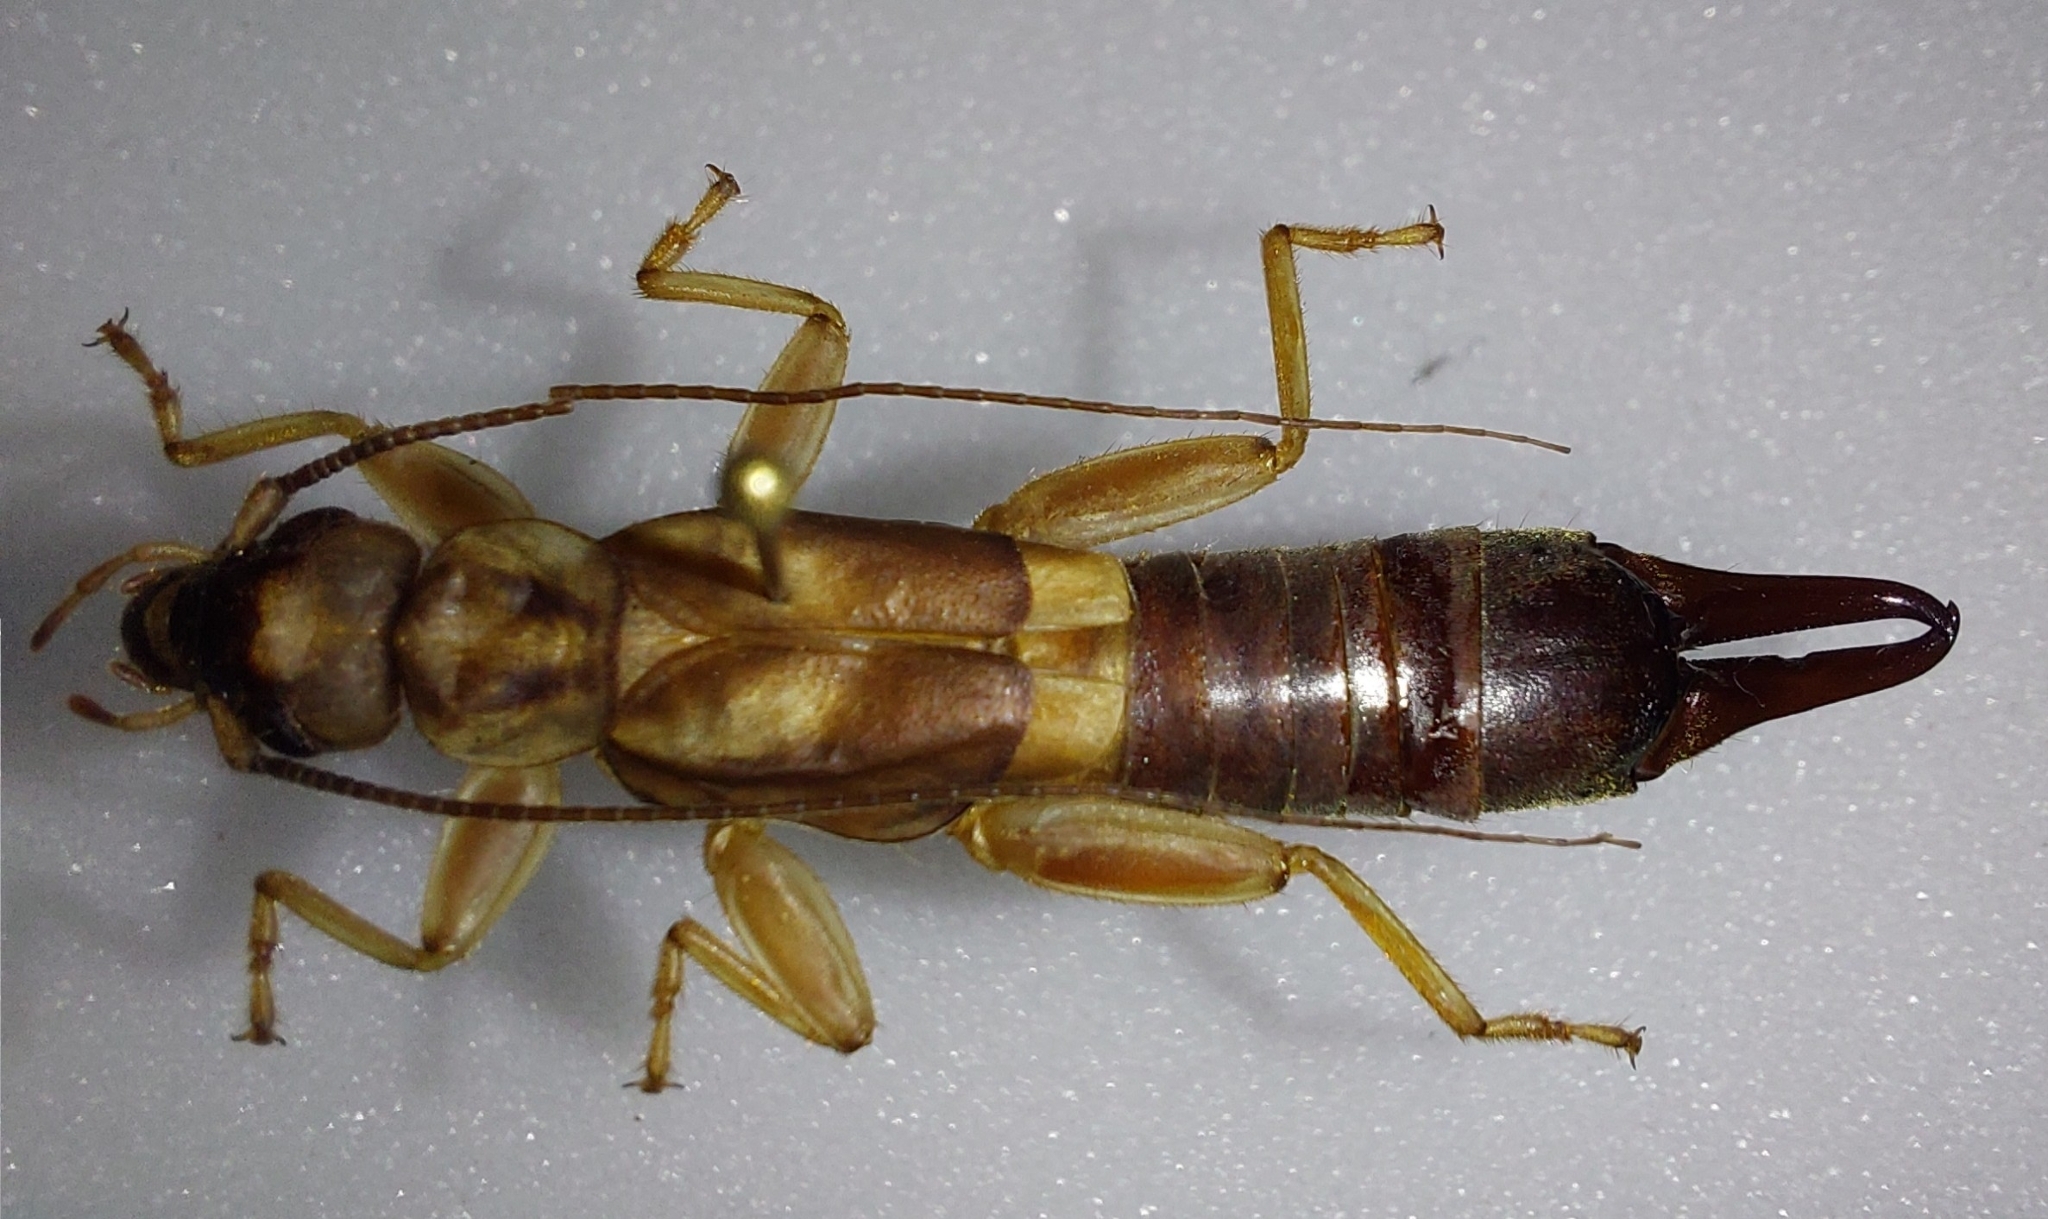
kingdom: Animalia
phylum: Arthropoda
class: Insecta
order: Dermaptera
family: Pygidicranidae
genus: Cranopygia
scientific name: Cranopygia imperatrix
